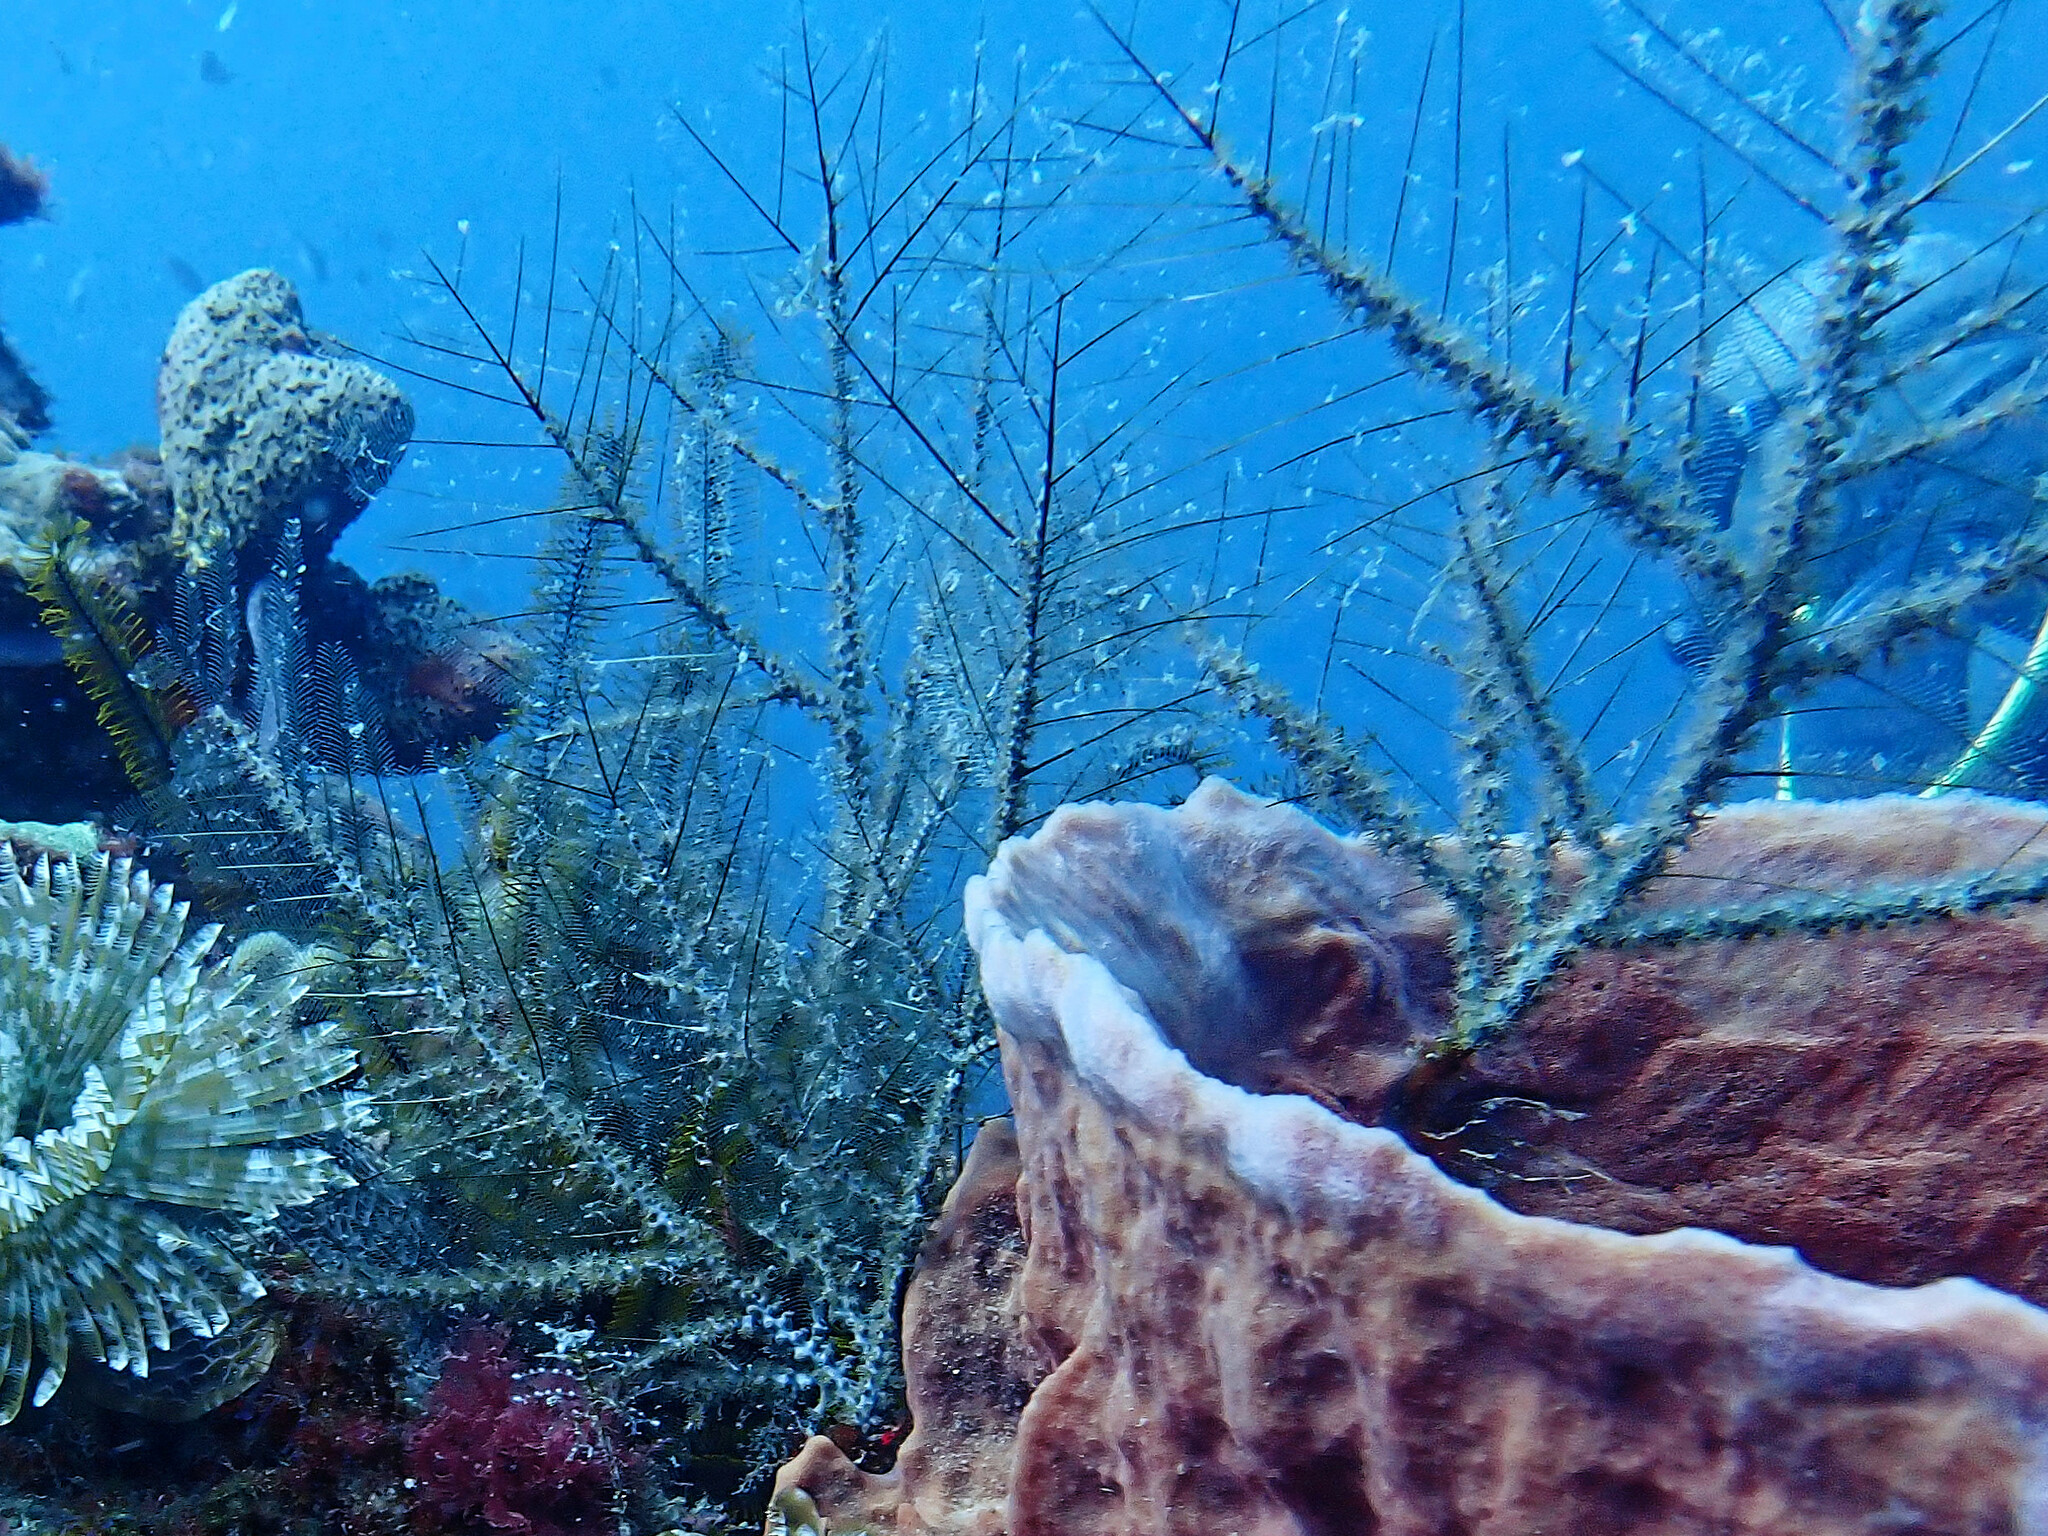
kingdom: Animalia
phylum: Cnidaria
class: Hydrozoa
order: Leptothecata
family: Plumulariidae
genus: Dentitheca
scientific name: Dentitheca dendritica
